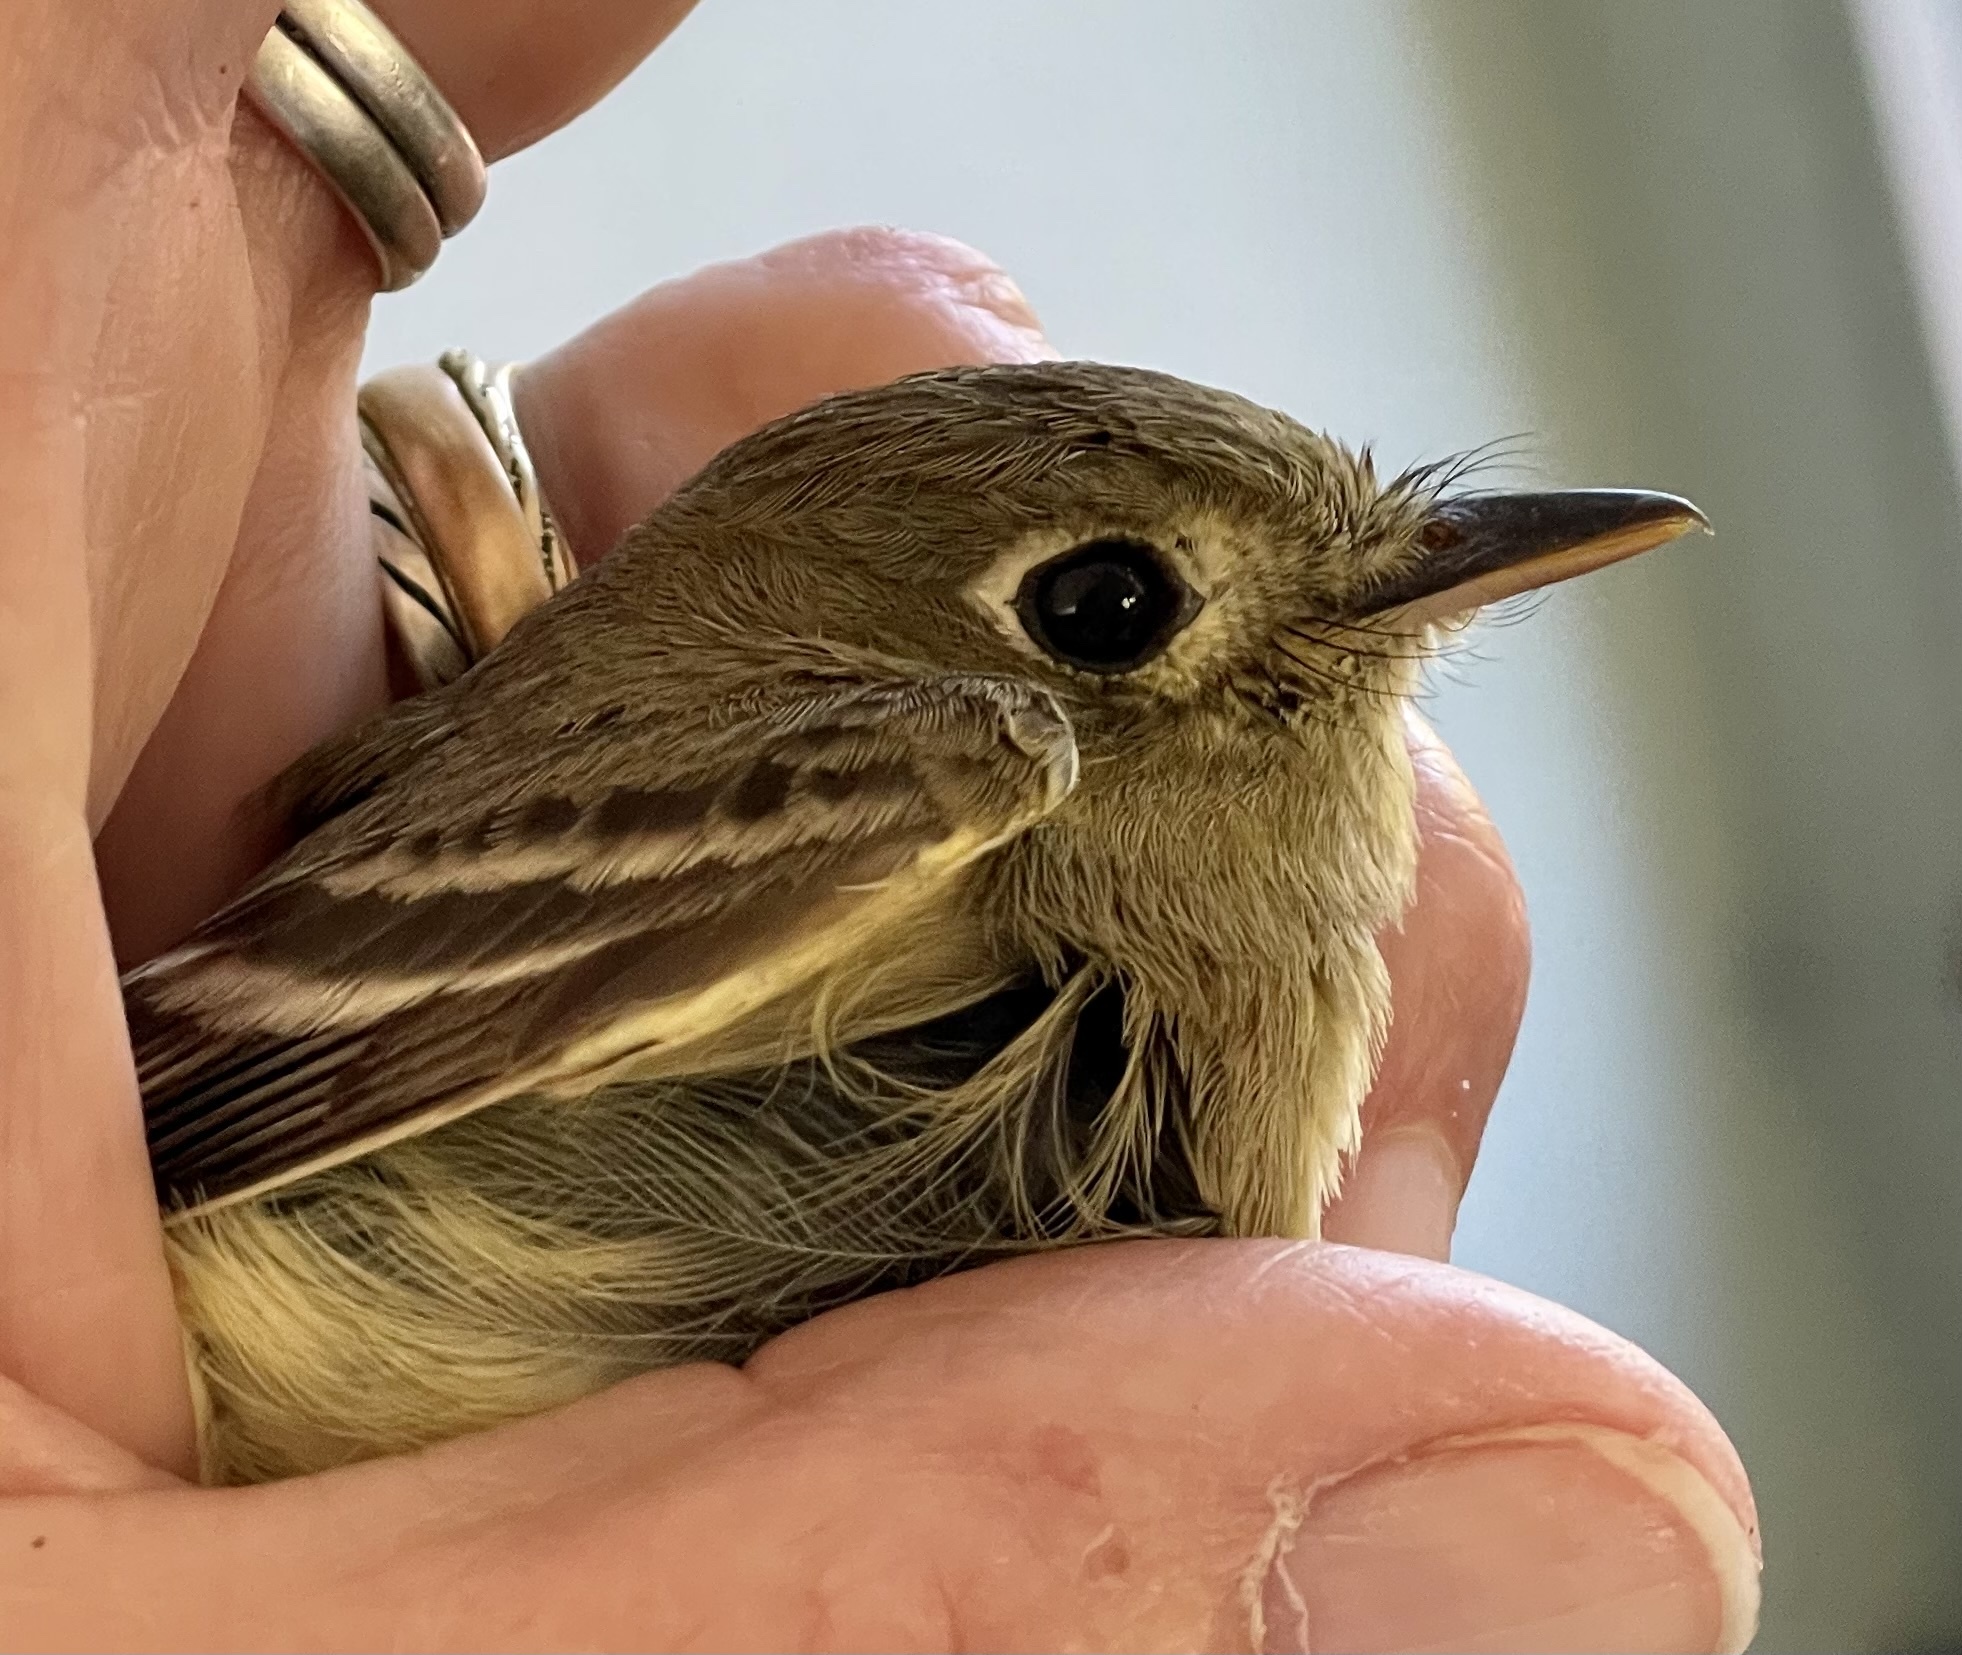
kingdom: Animalia
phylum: Chordata
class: Aves
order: Passeriformes
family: Vireonidae
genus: Vireo
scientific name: Vireo huttoni
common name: Hutton's vireo
